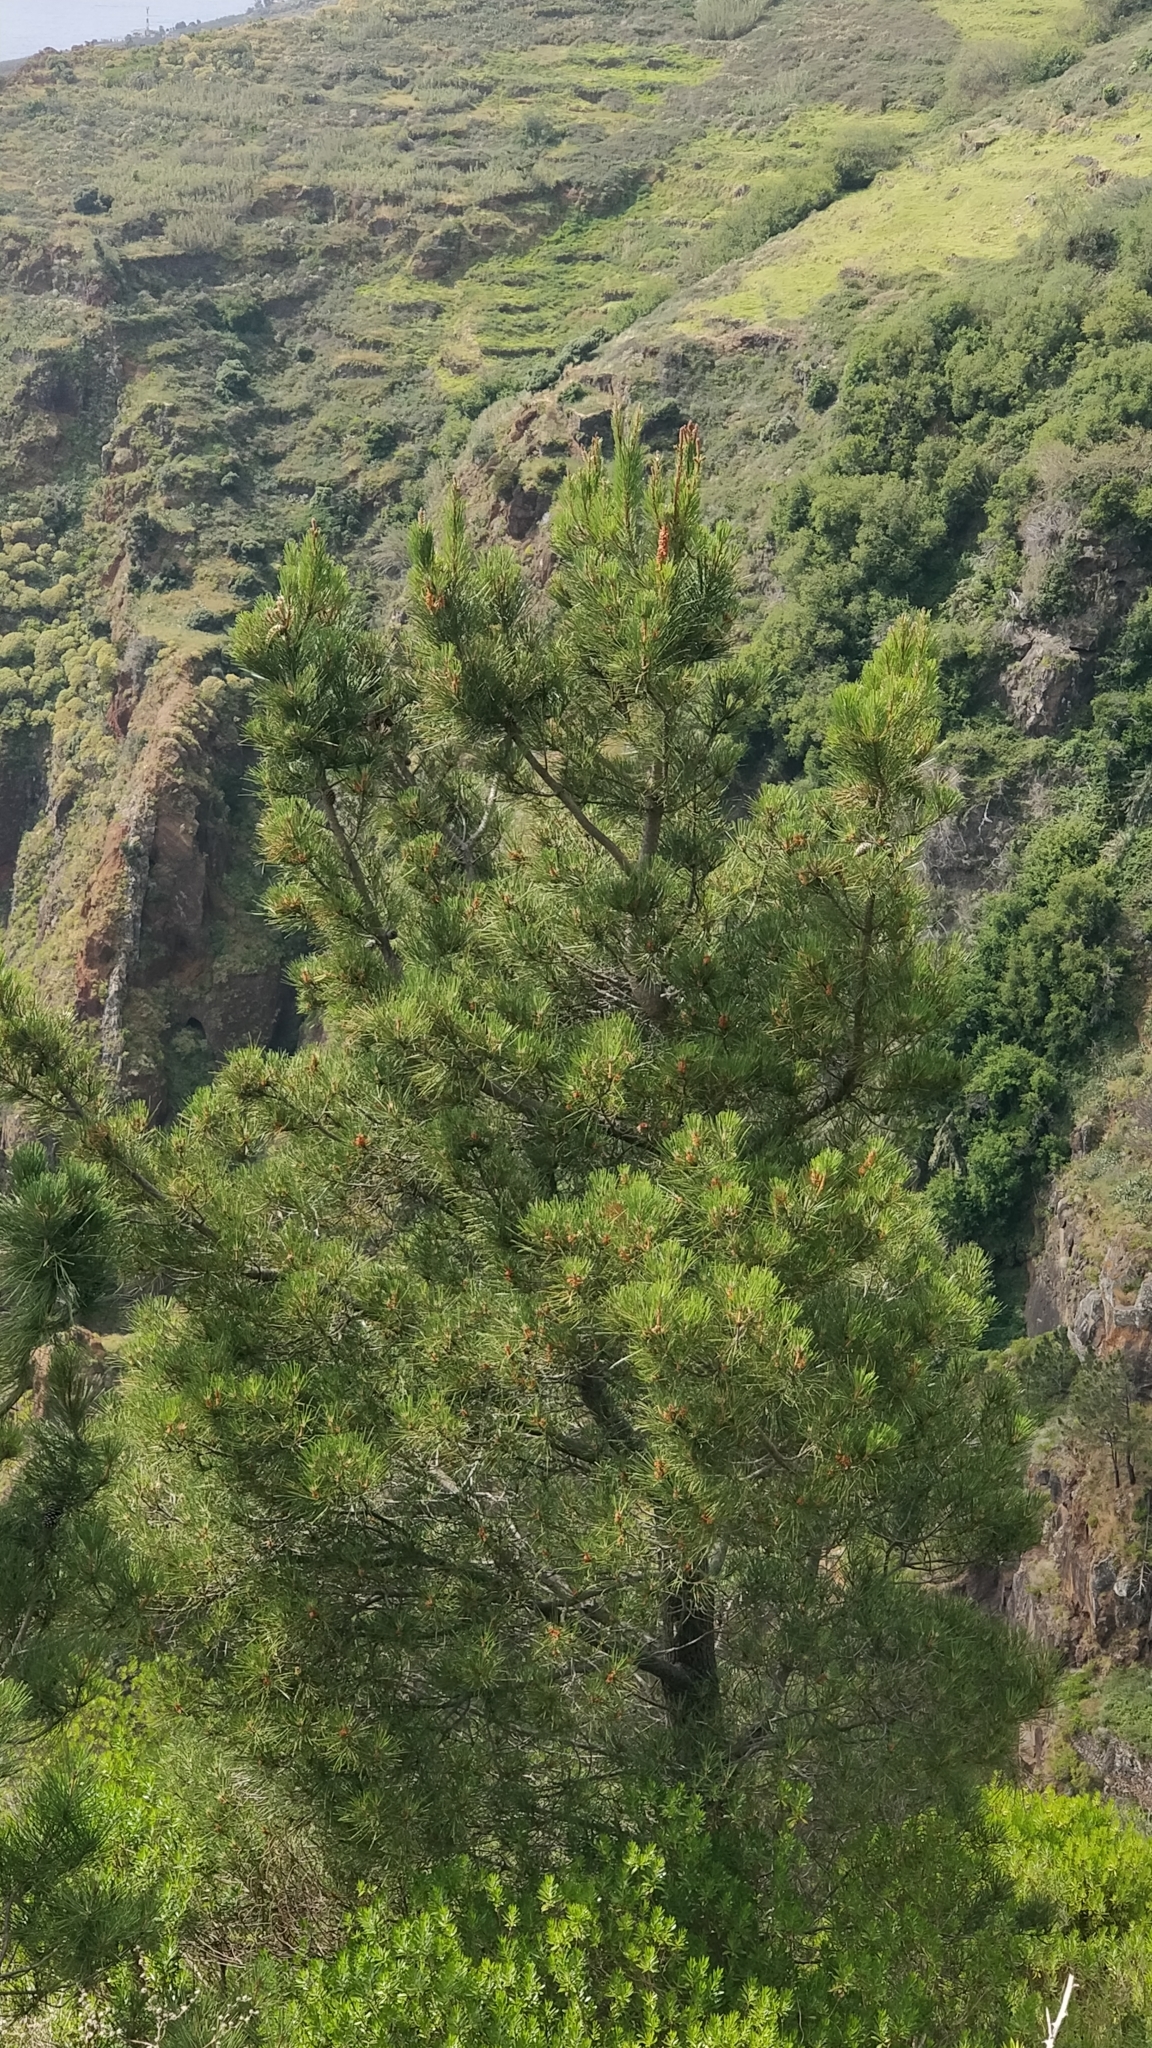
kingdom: Plantae
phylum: Tracheophyta
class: Pinopsida
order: Pinales
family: Pinaceae
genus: Pinus
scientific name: Pinus pinaster
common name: Maritime pine
